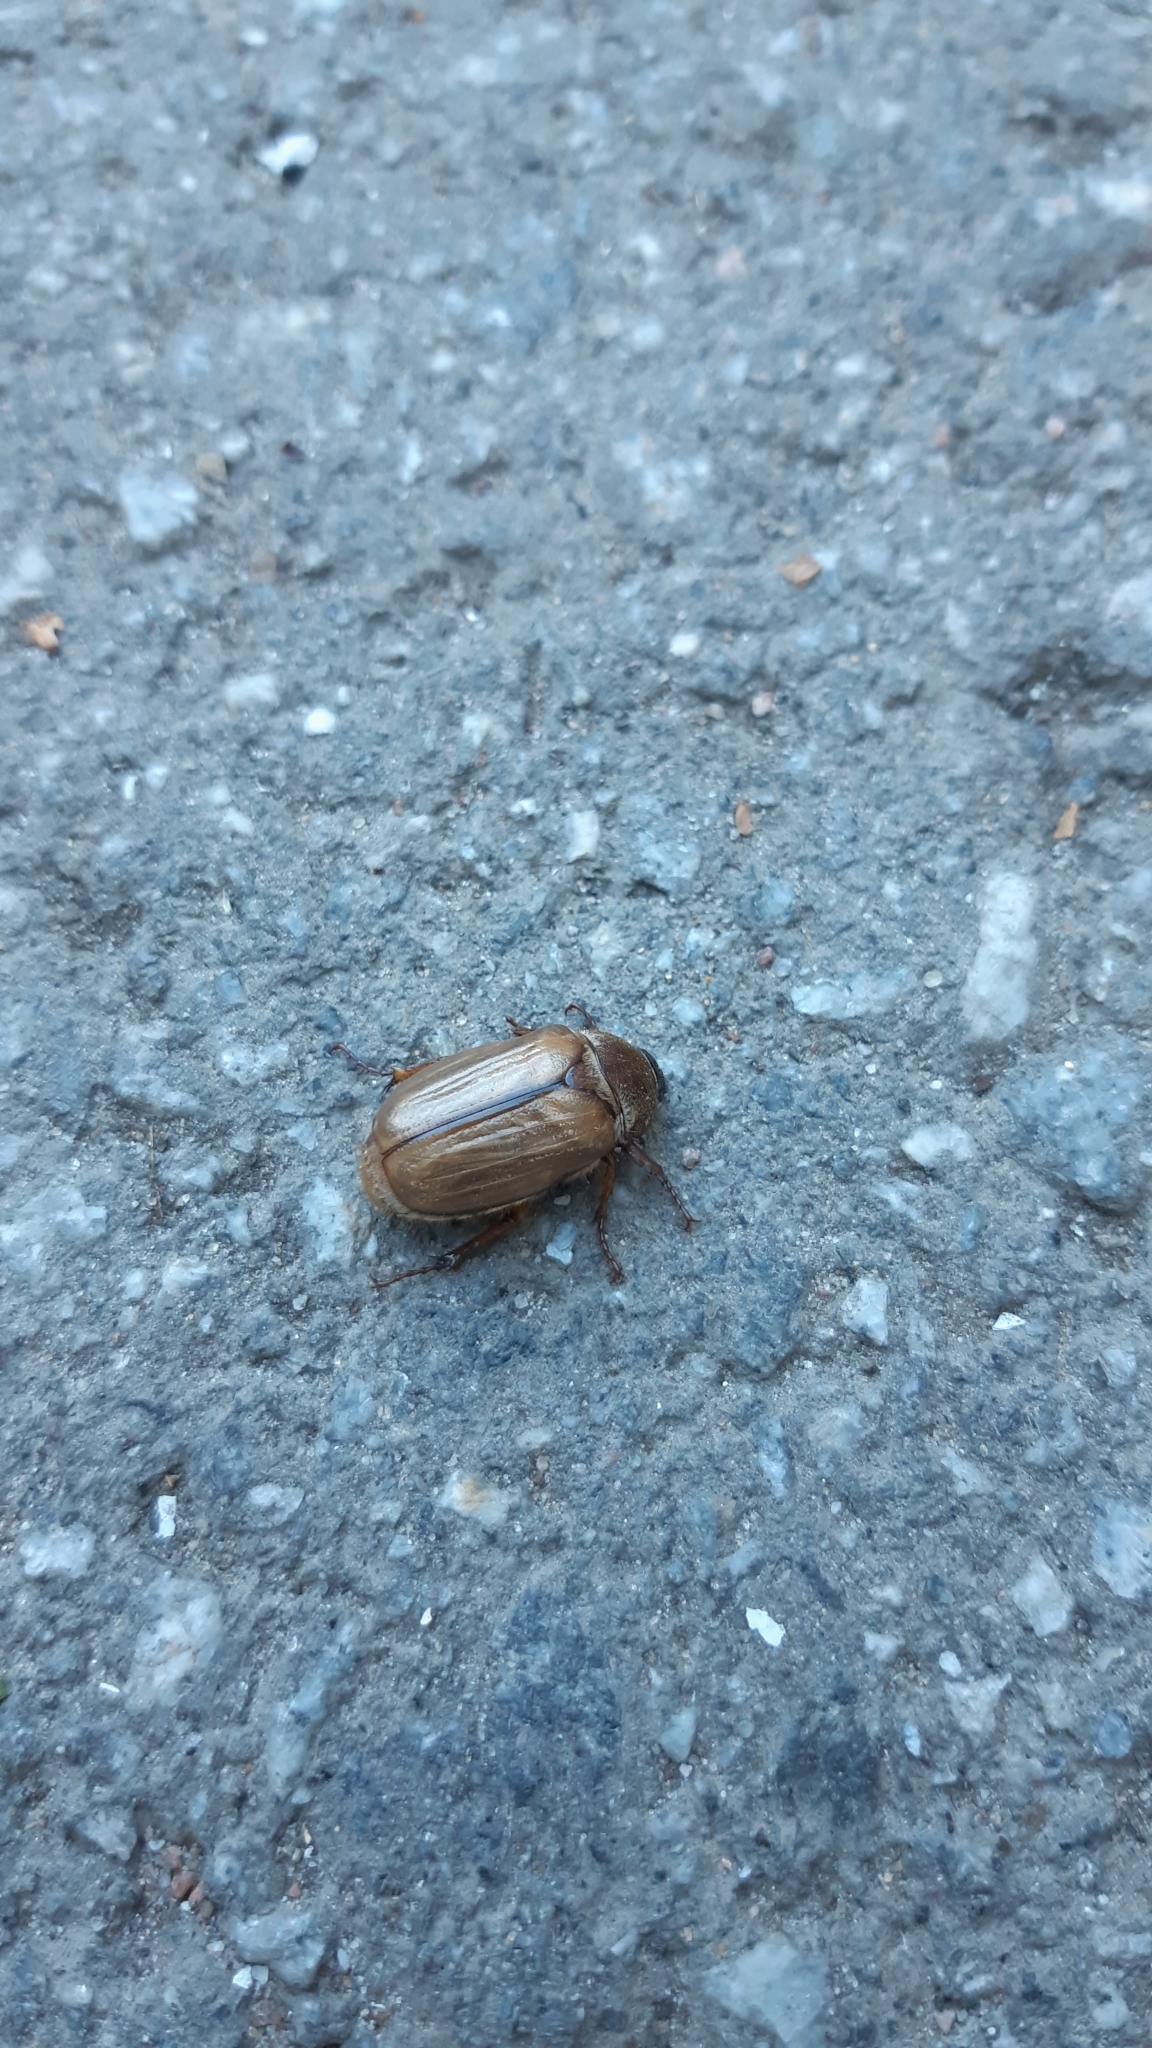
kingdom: Animalia
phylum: Arthropoda
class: Insecta
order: Coleoptera
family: Scarabaeidae
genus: Amphimallon
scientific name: Amphimallon solstitiale
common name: Summer chafer
